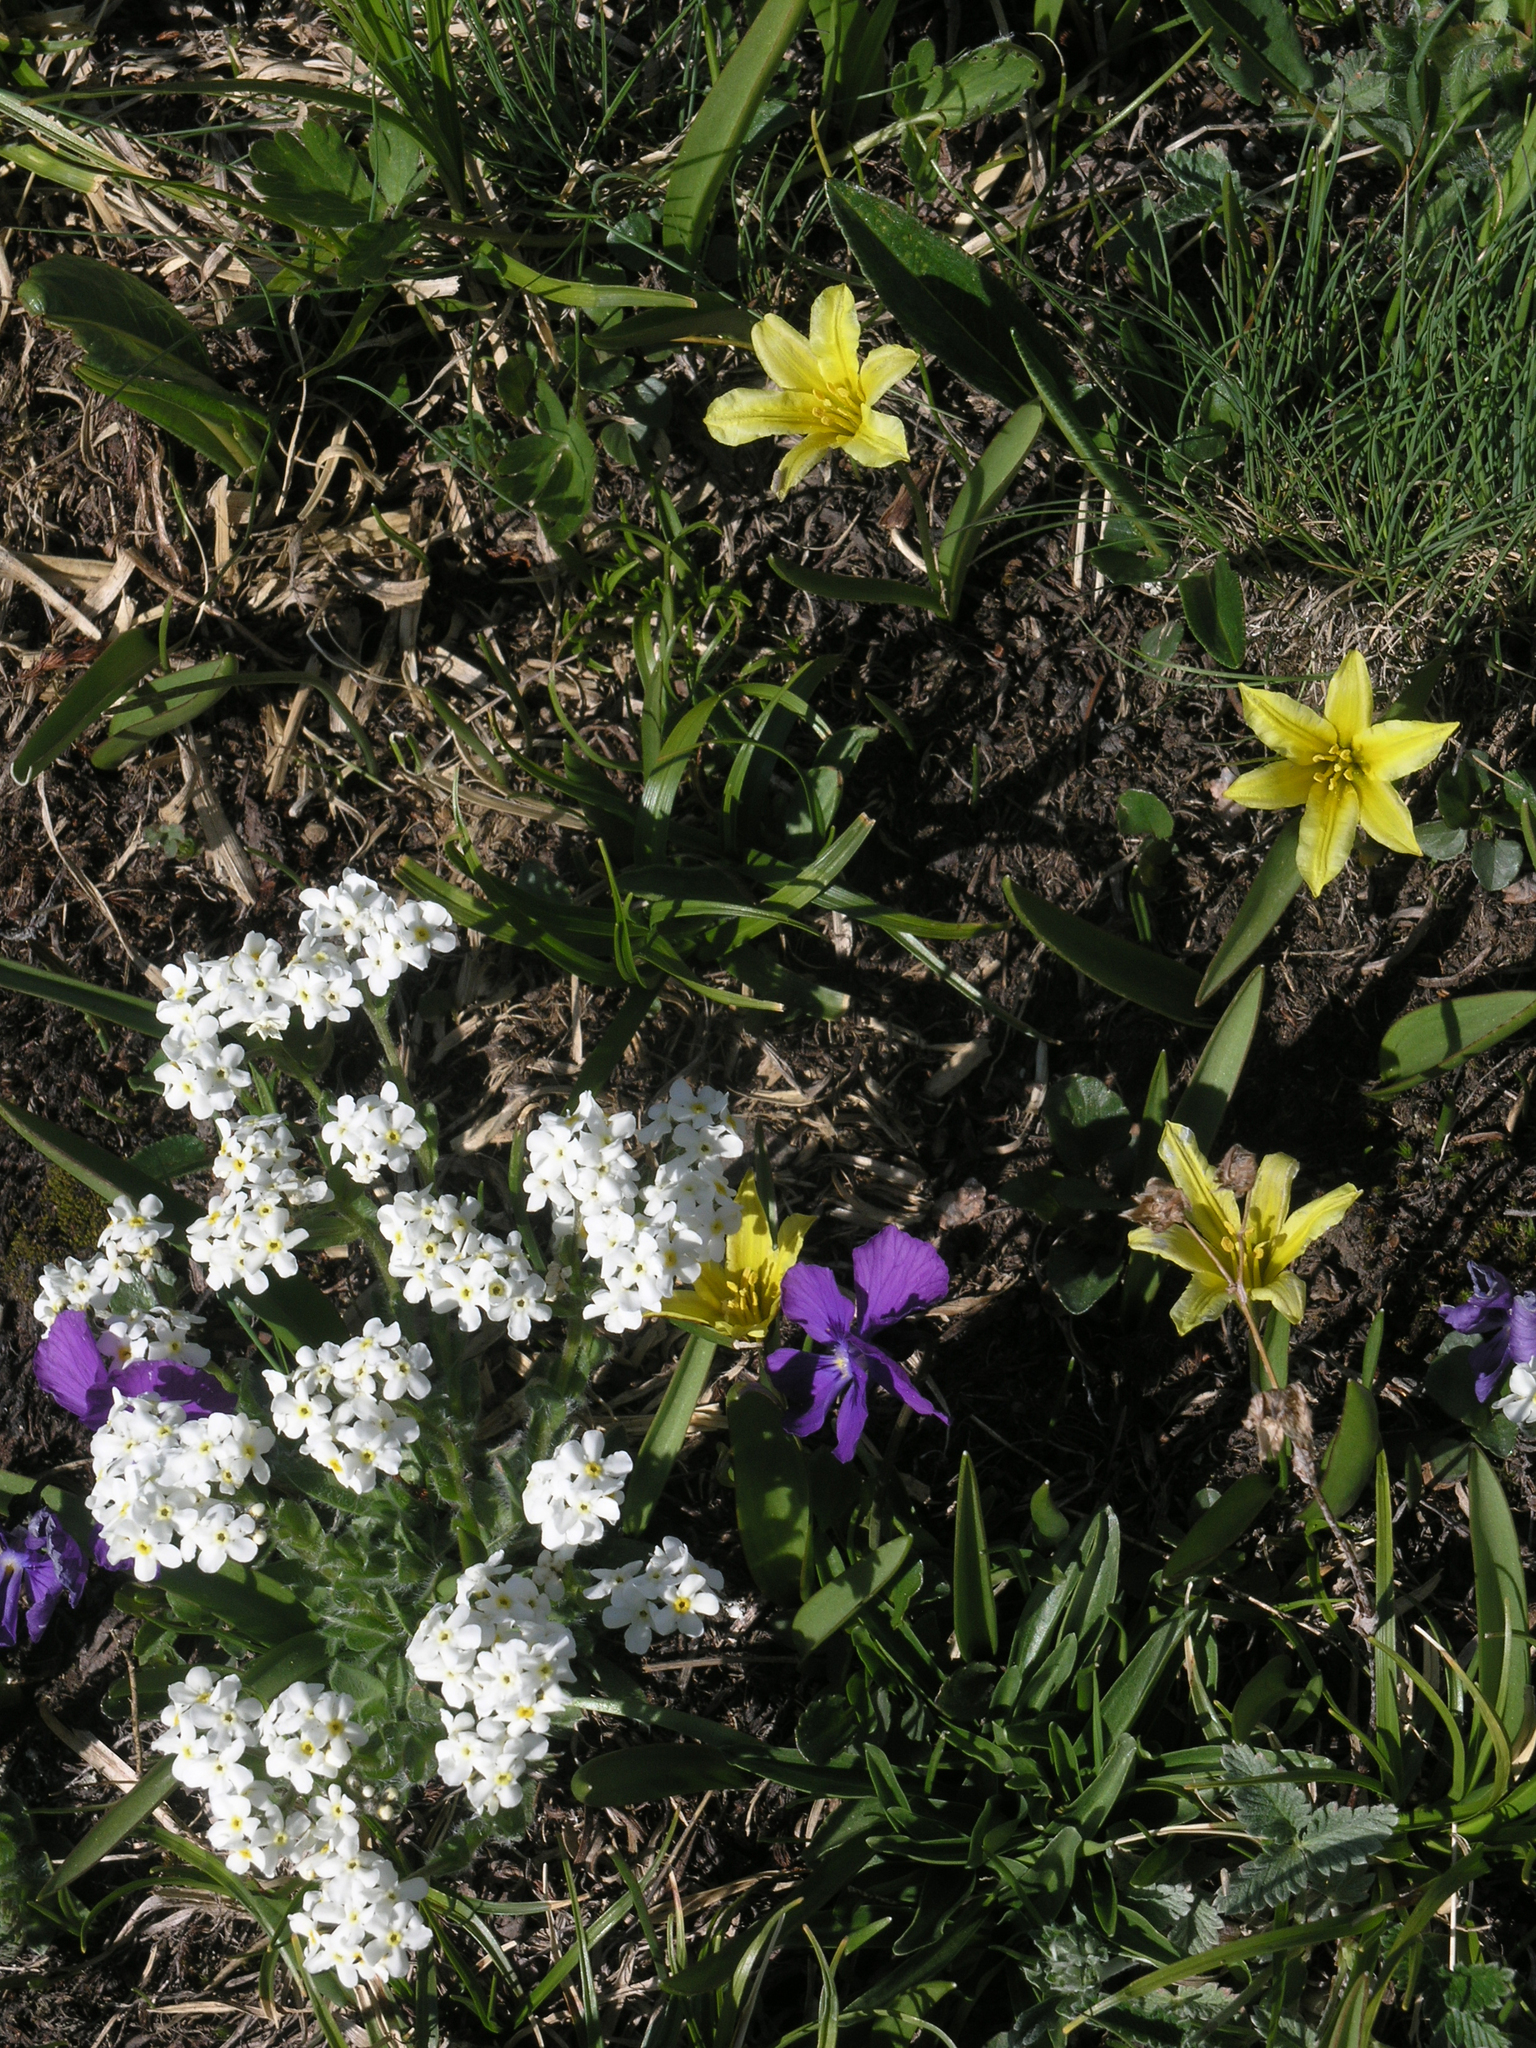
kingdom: Plantae
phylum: Tracheophyta
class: Magnoliopsida
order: Malpighiales
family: Violaceae
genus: Viola
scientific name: Viola altaica
